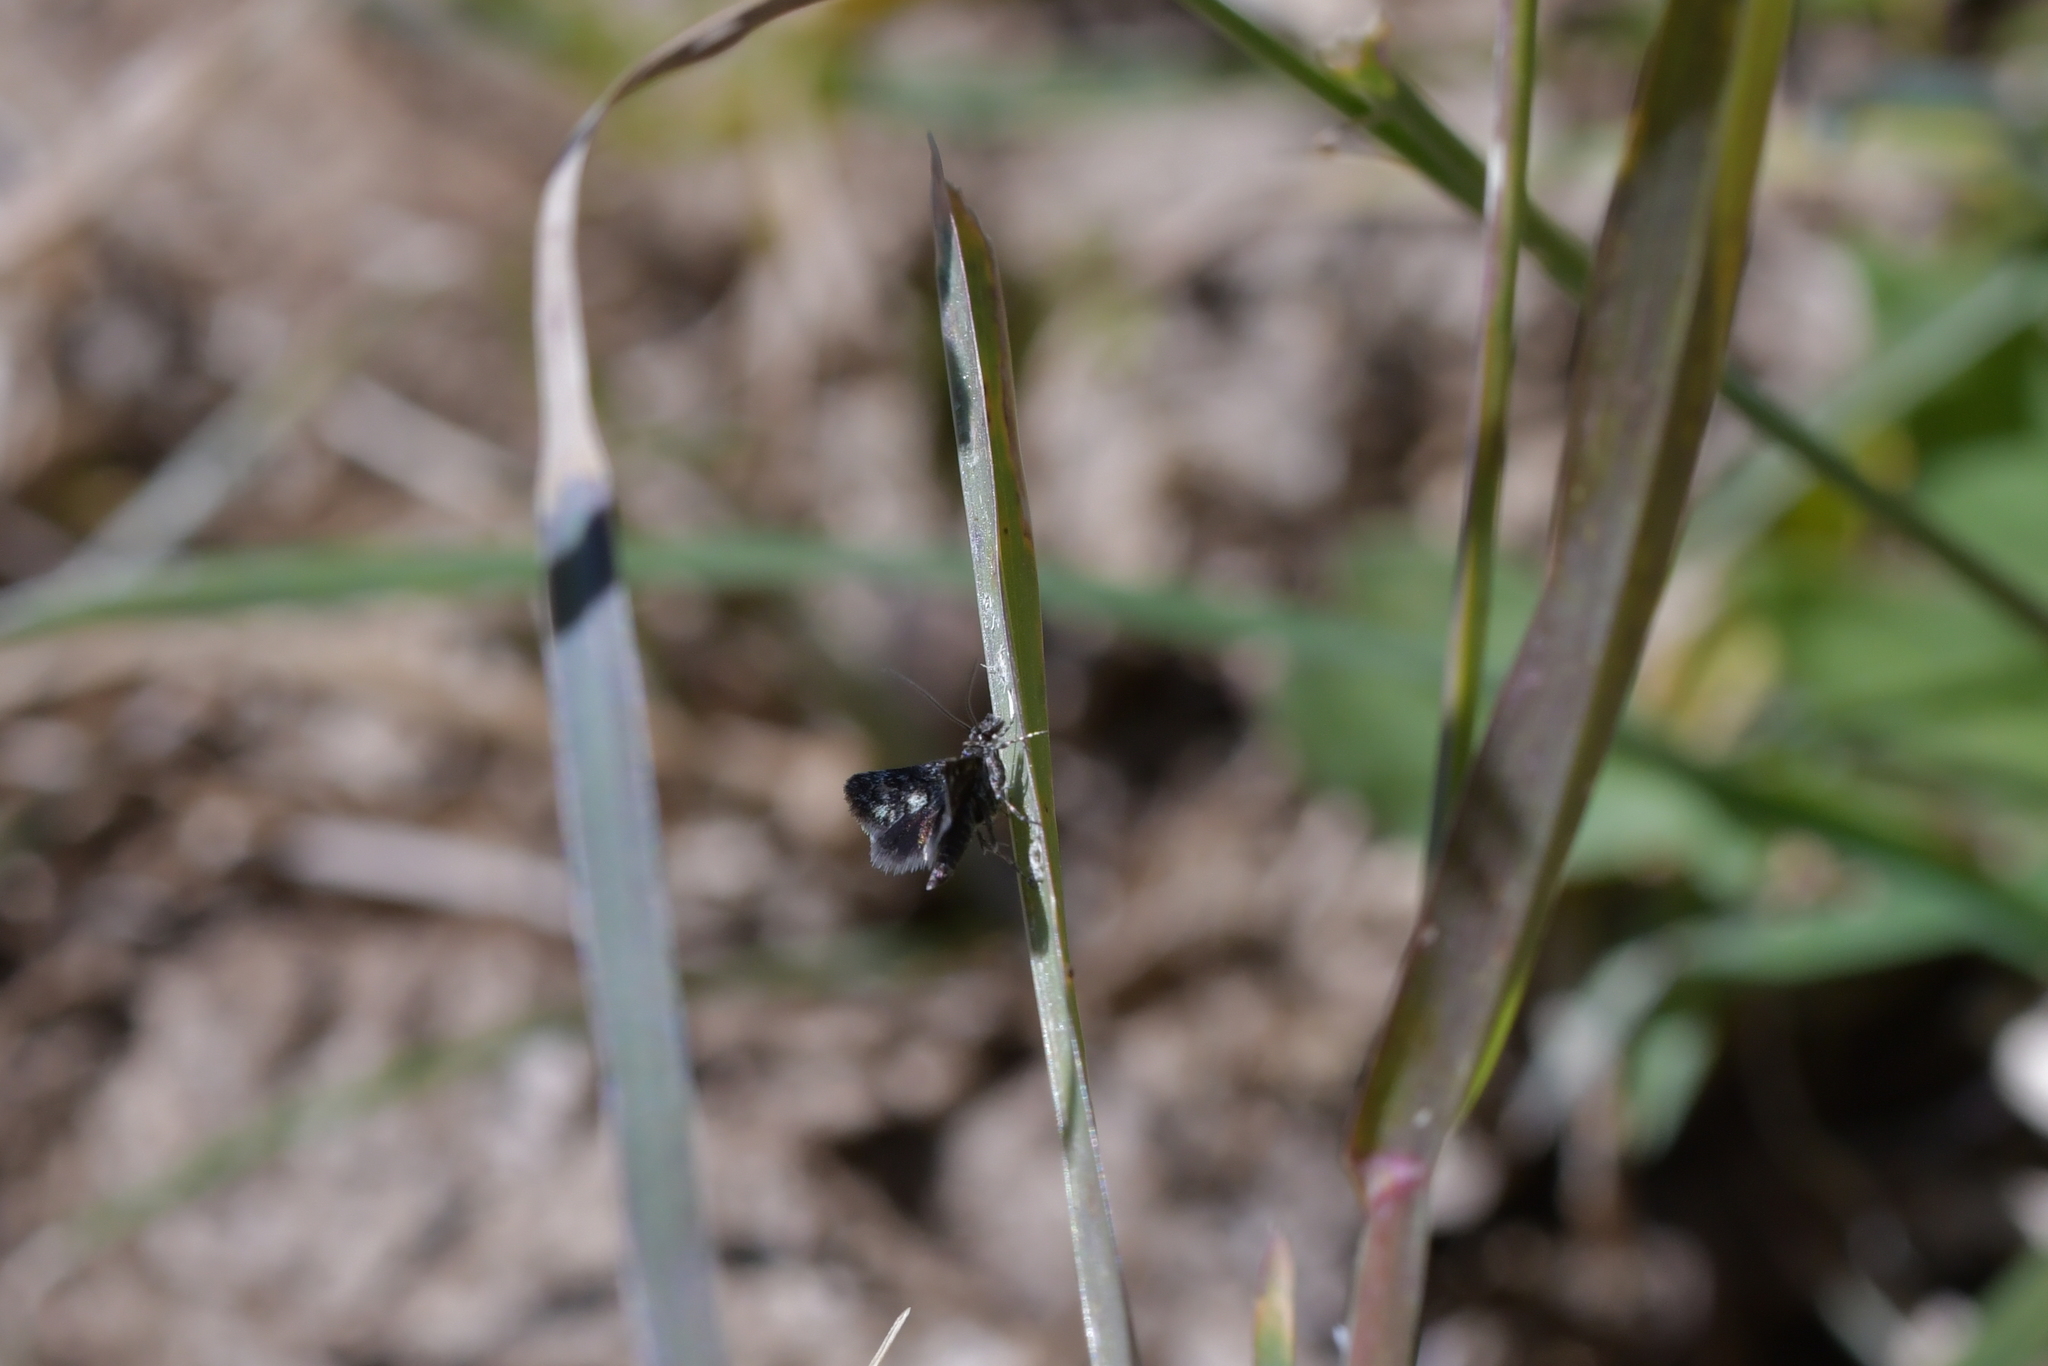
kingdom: Animalia
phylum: Arthropoda
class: Insecta
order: Lepidoptera
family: Crambidae
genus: Heliothela
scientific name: Heliothela atra
